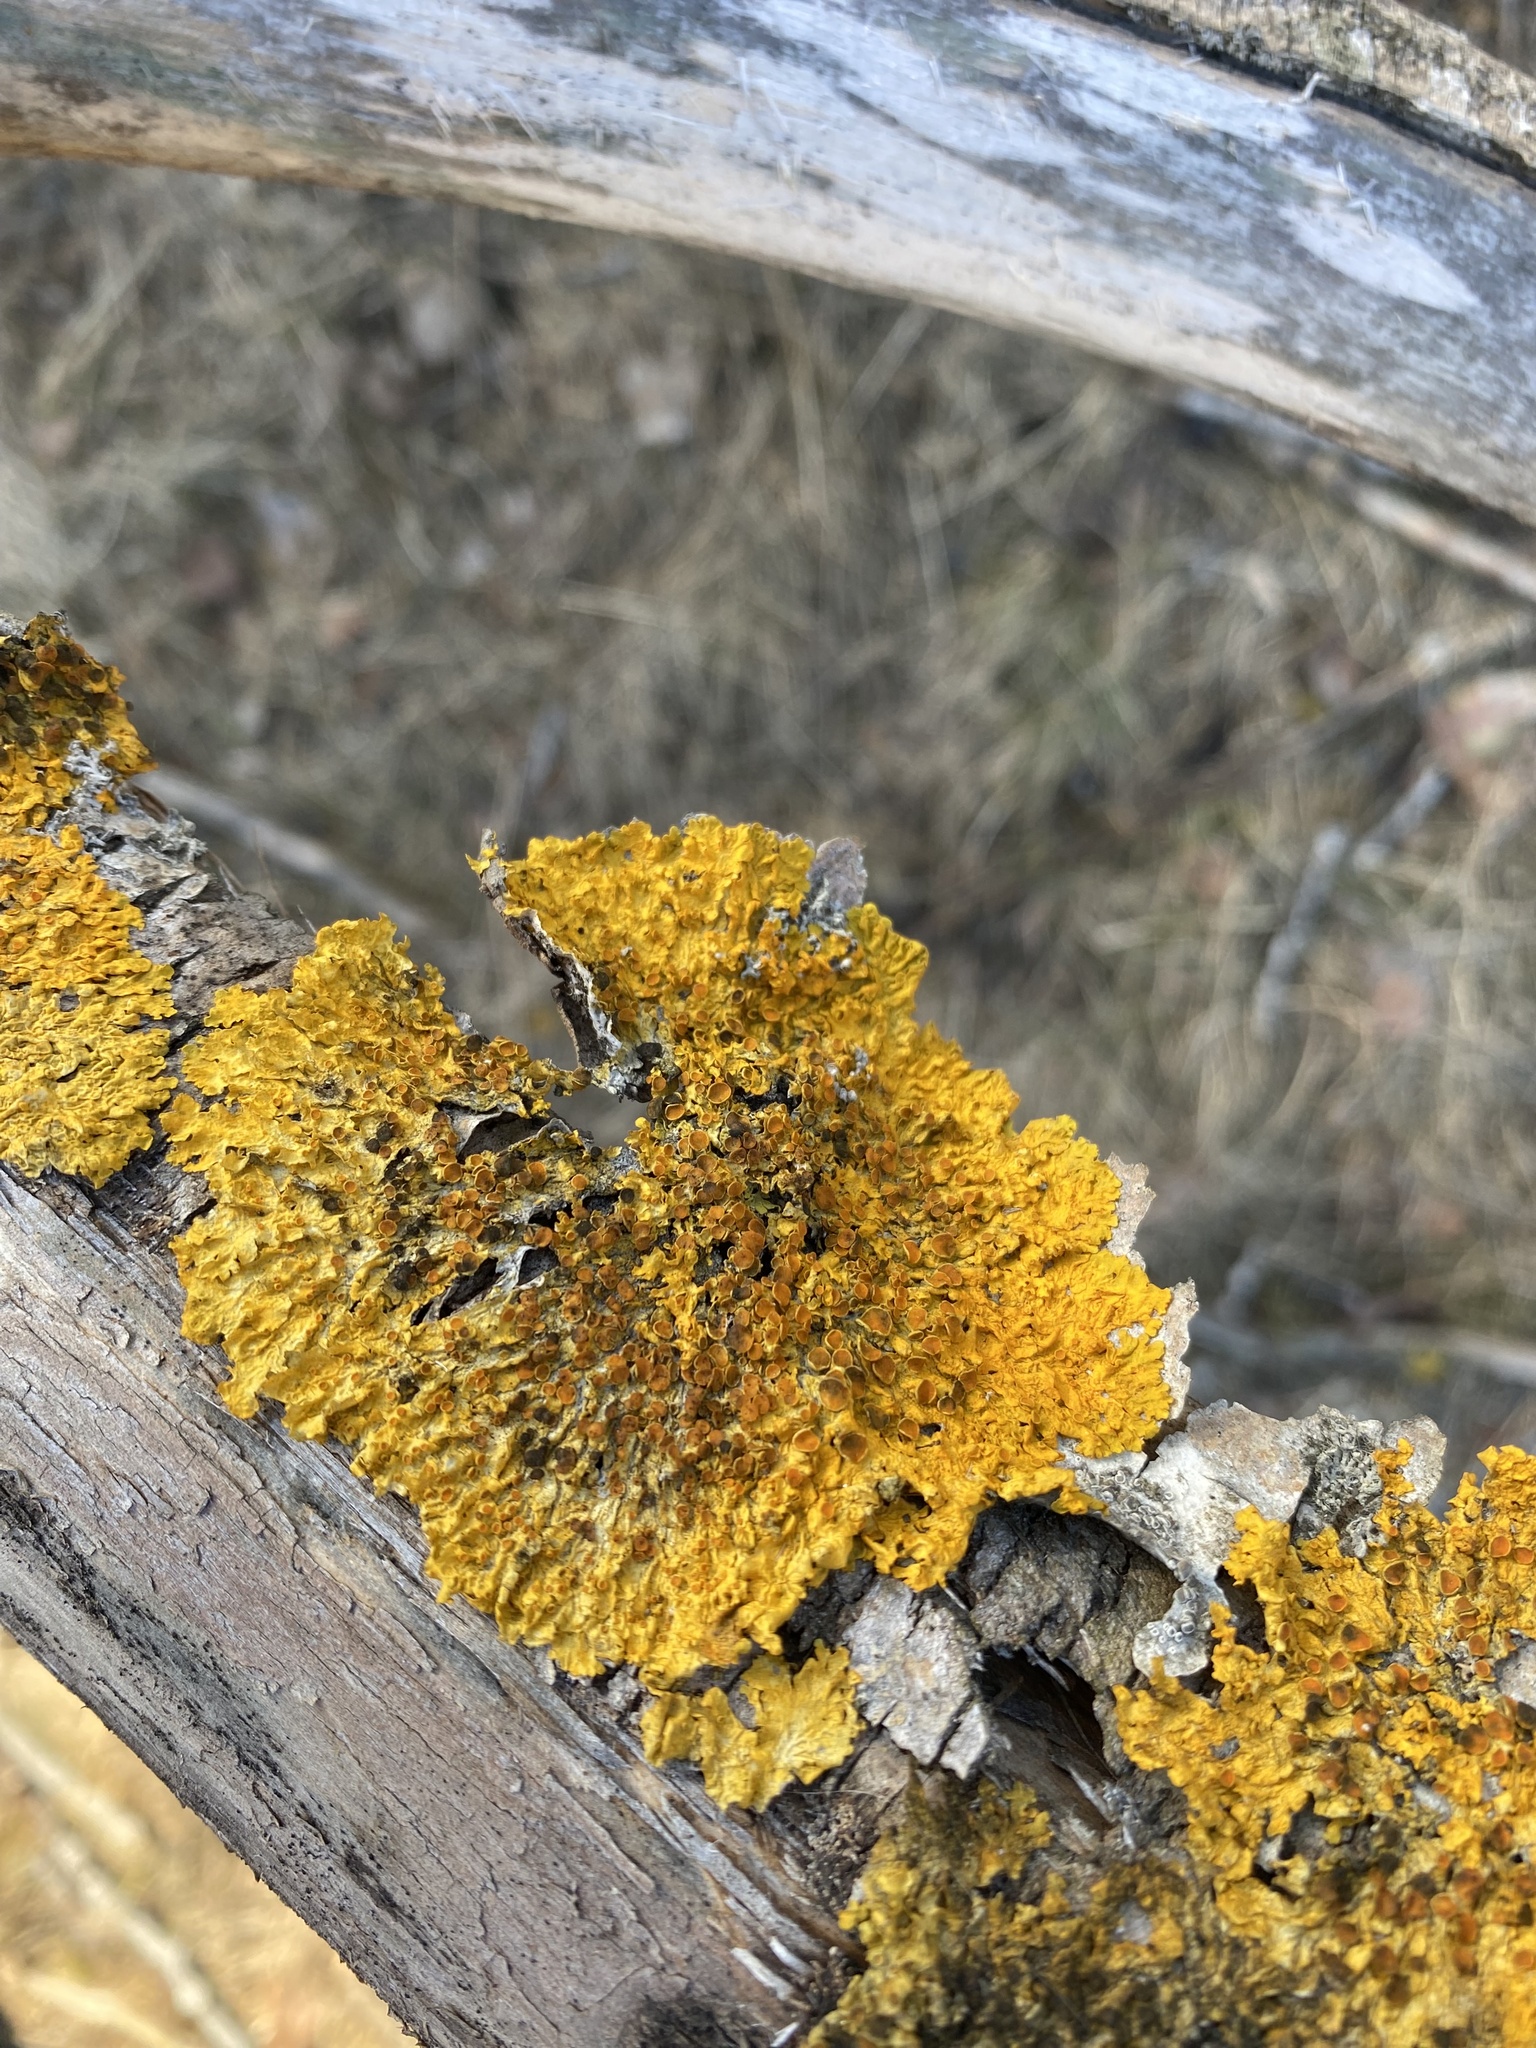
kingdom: Fungi
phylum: Ascomycota
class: Lecanoromycetes
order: Teloschistales
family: Teloschistaceae
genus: Xanthoria
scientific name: Xanthoria parietina
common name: Common orange lichen
